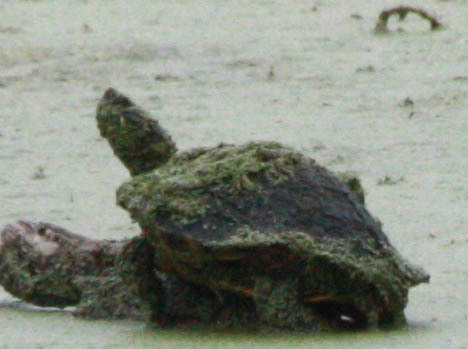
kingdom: Animalia
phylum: Chordata
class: Testudines
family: Emydidae
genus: Trachemys
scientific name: Trachemys scripta
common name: Slider
